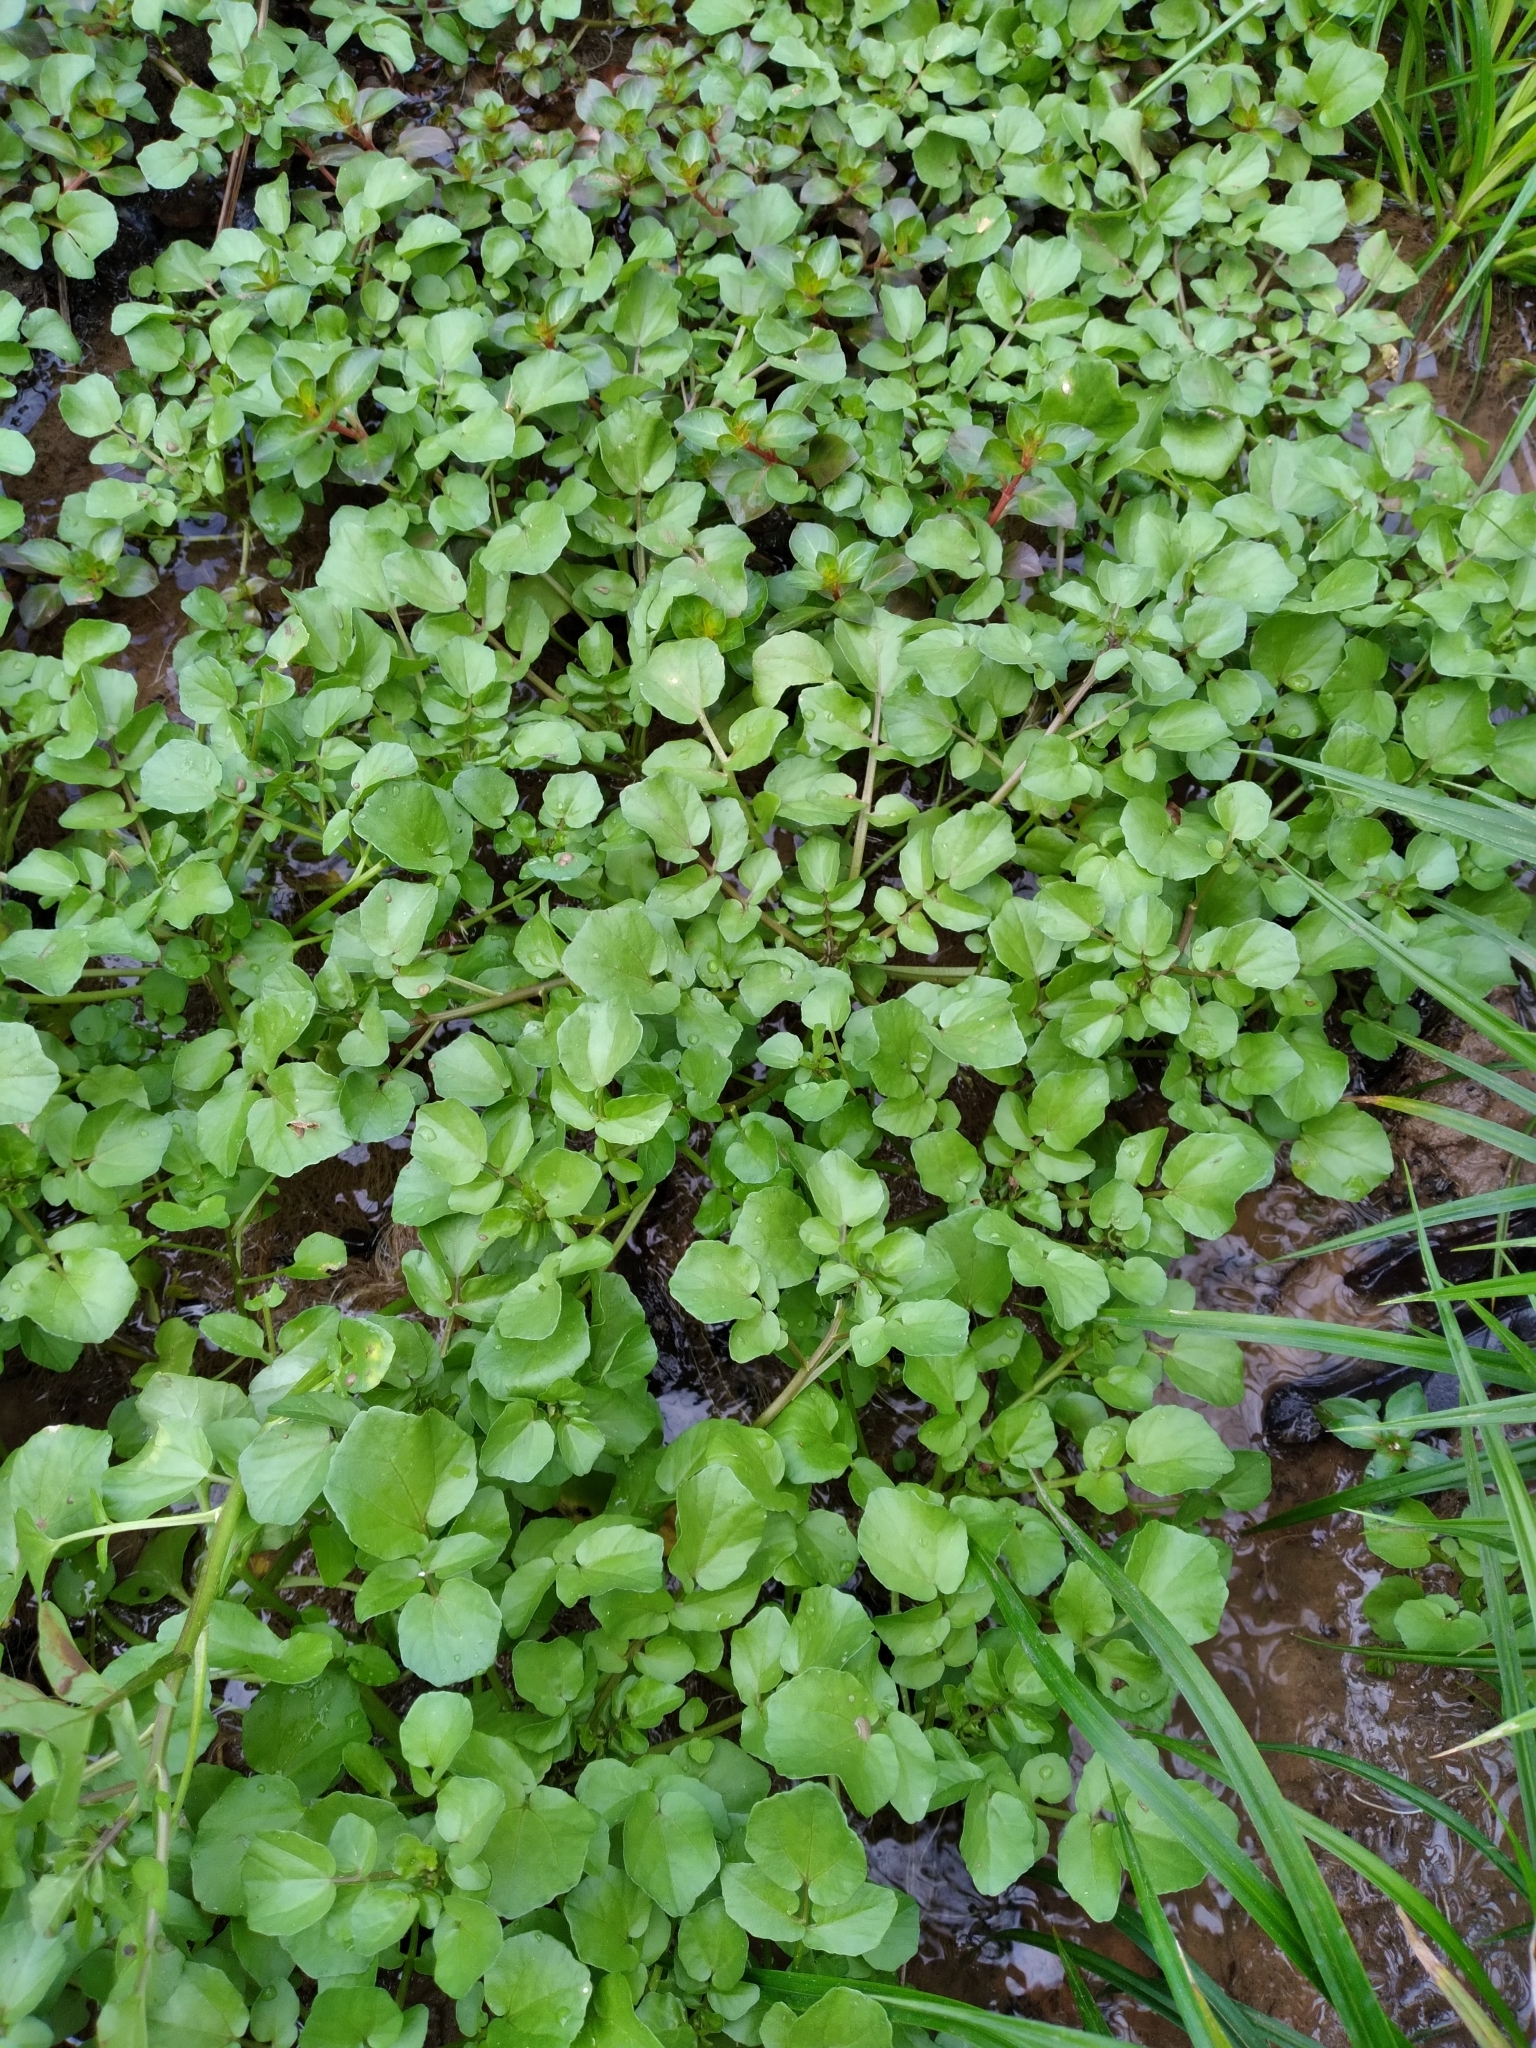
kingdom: Plantae
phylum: Tracheophyta
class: Magnoliopsida
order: Brassicales
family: Brassicaceae
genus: Nasturtium
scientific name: Nasturtium officinale
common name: Watercress
